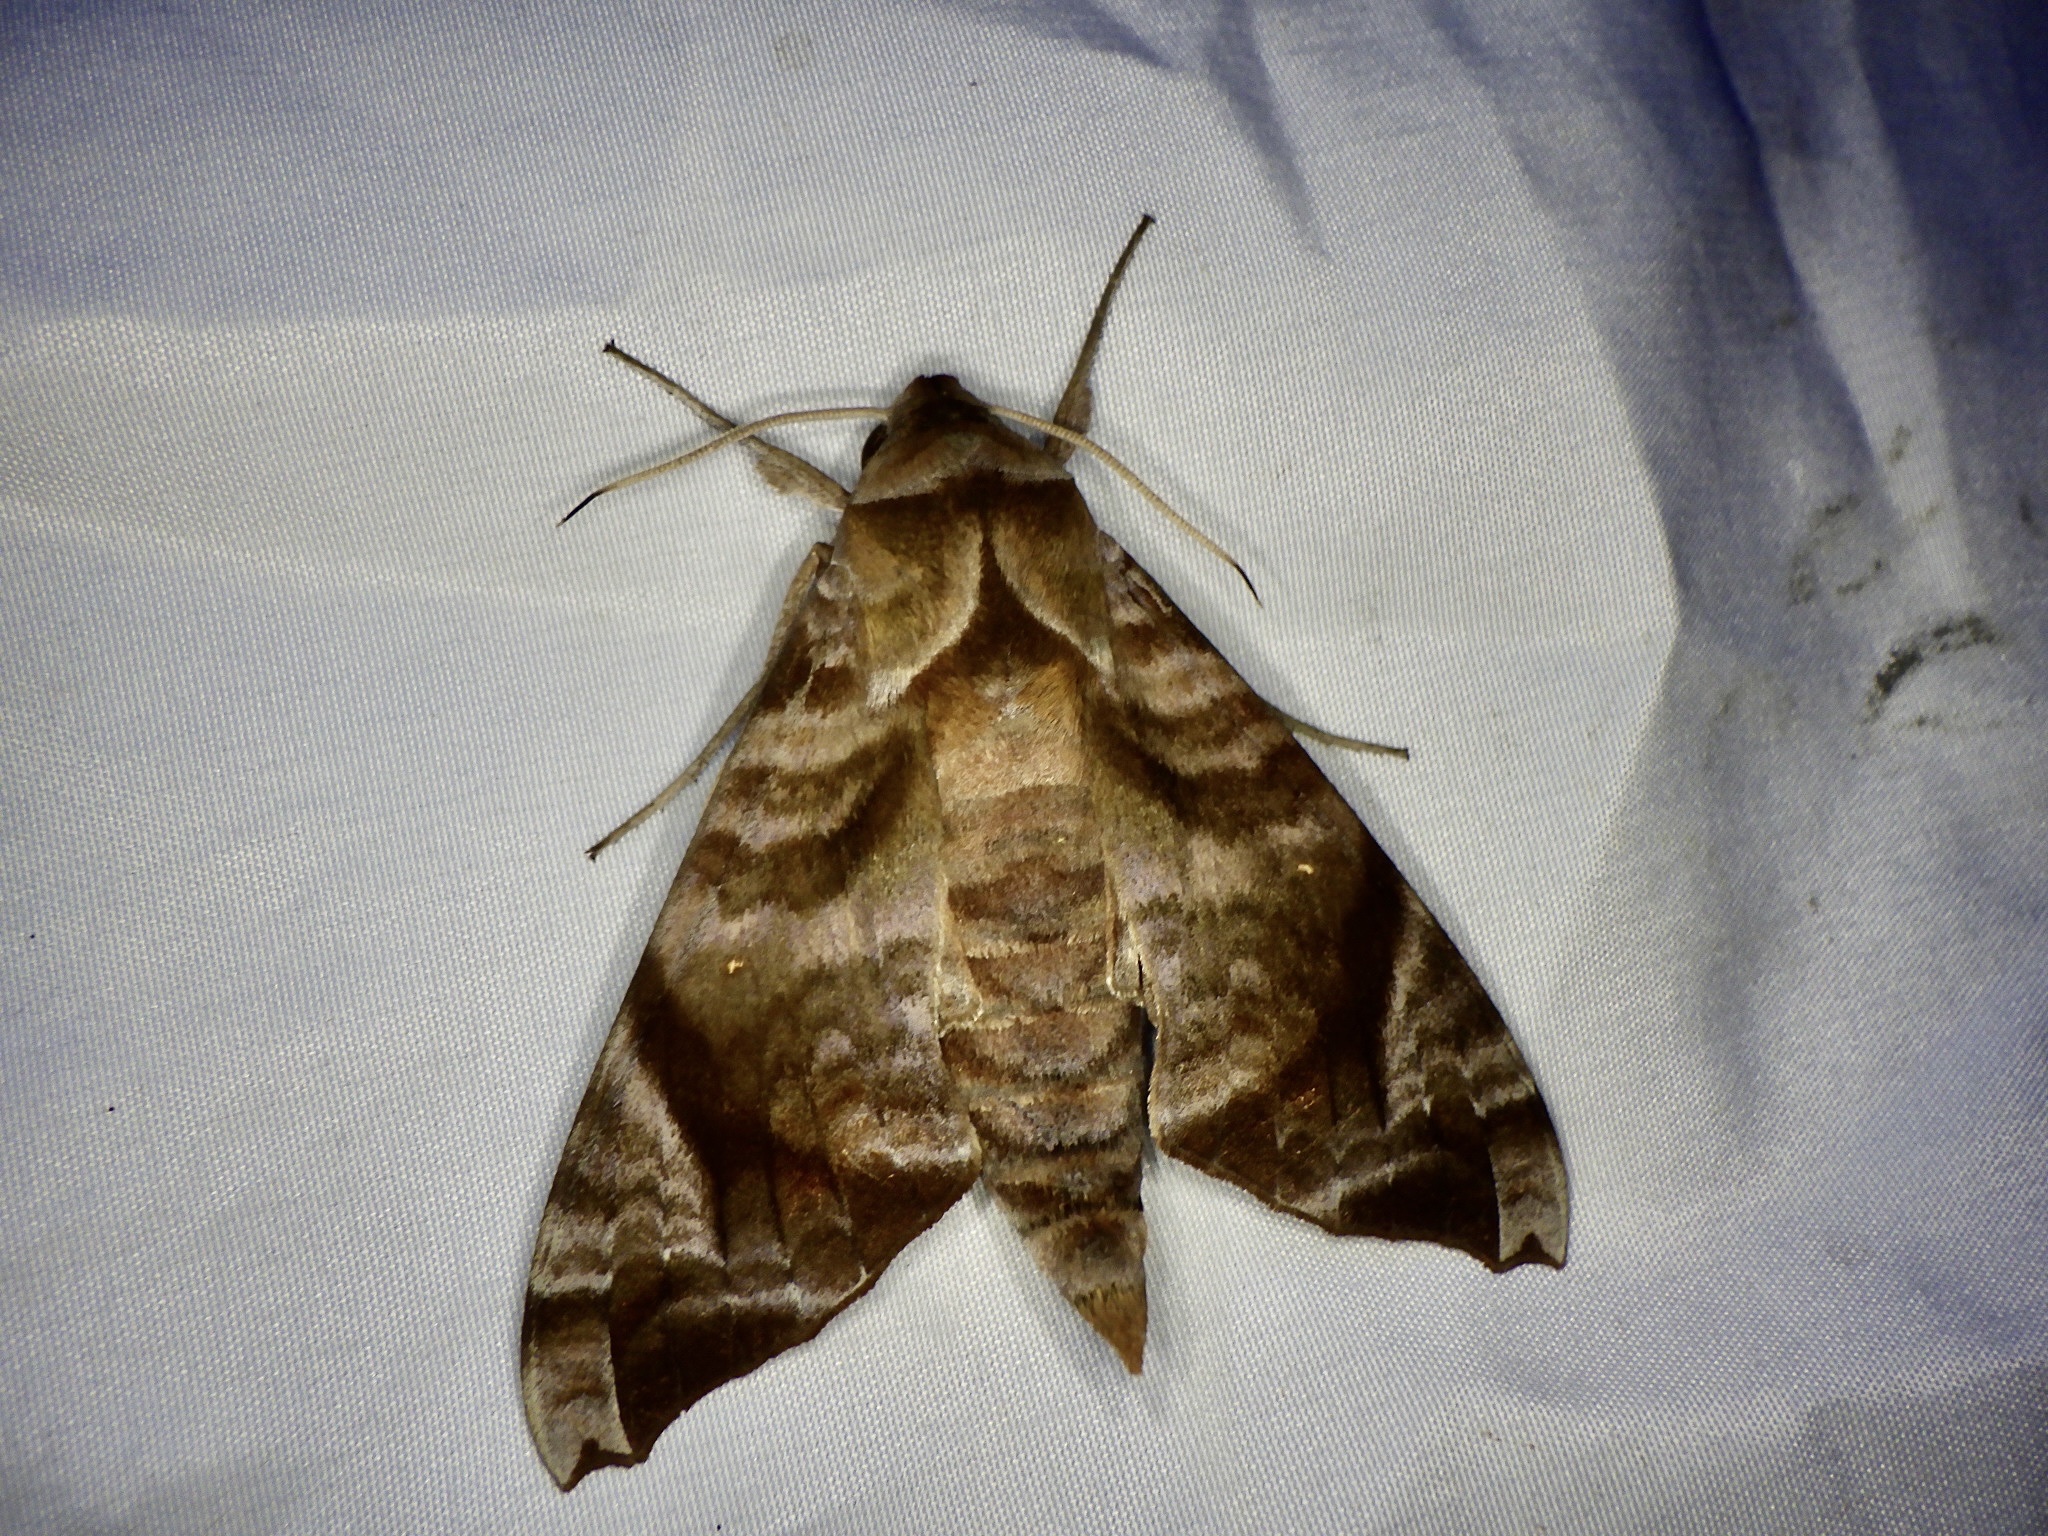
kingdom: Animalia
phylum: Arthropoda
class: Insecta
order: Lepidoptera
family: Sphingidae
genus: Acosmeryx
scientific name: Acosmeryx castanea
